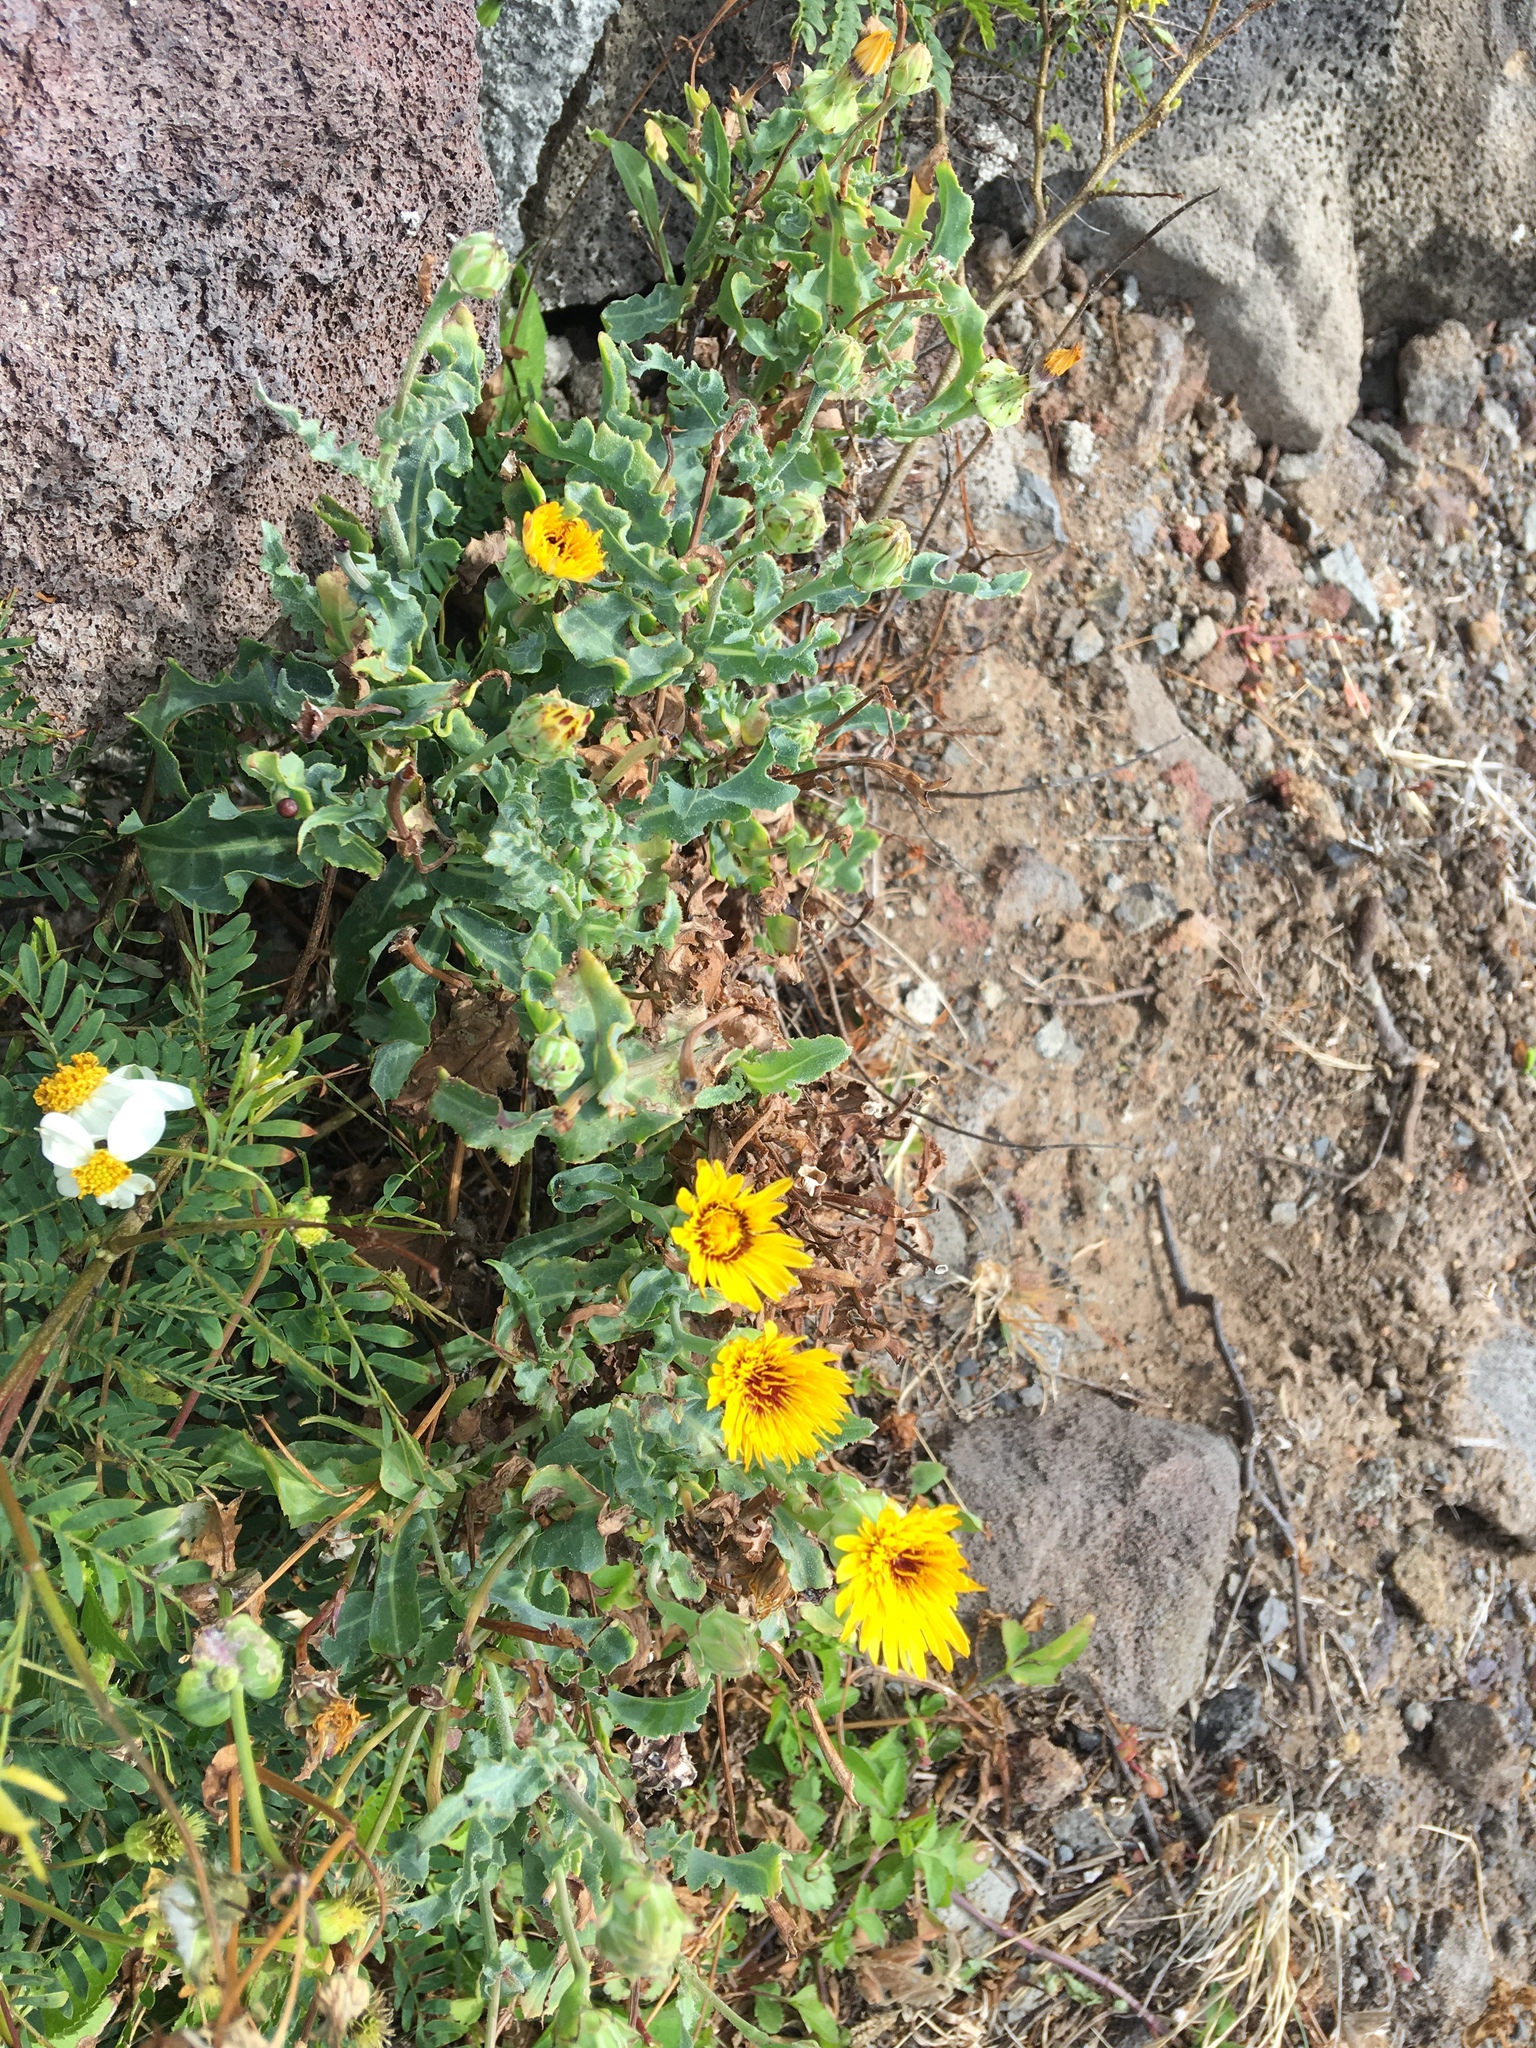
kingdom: Plantae
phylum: Tracheophyta
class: Magnoliopsida
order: Asterales
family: Asteraceae
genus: Verbesina
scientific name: Verbesina encelioides
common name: Golden crownbeard
